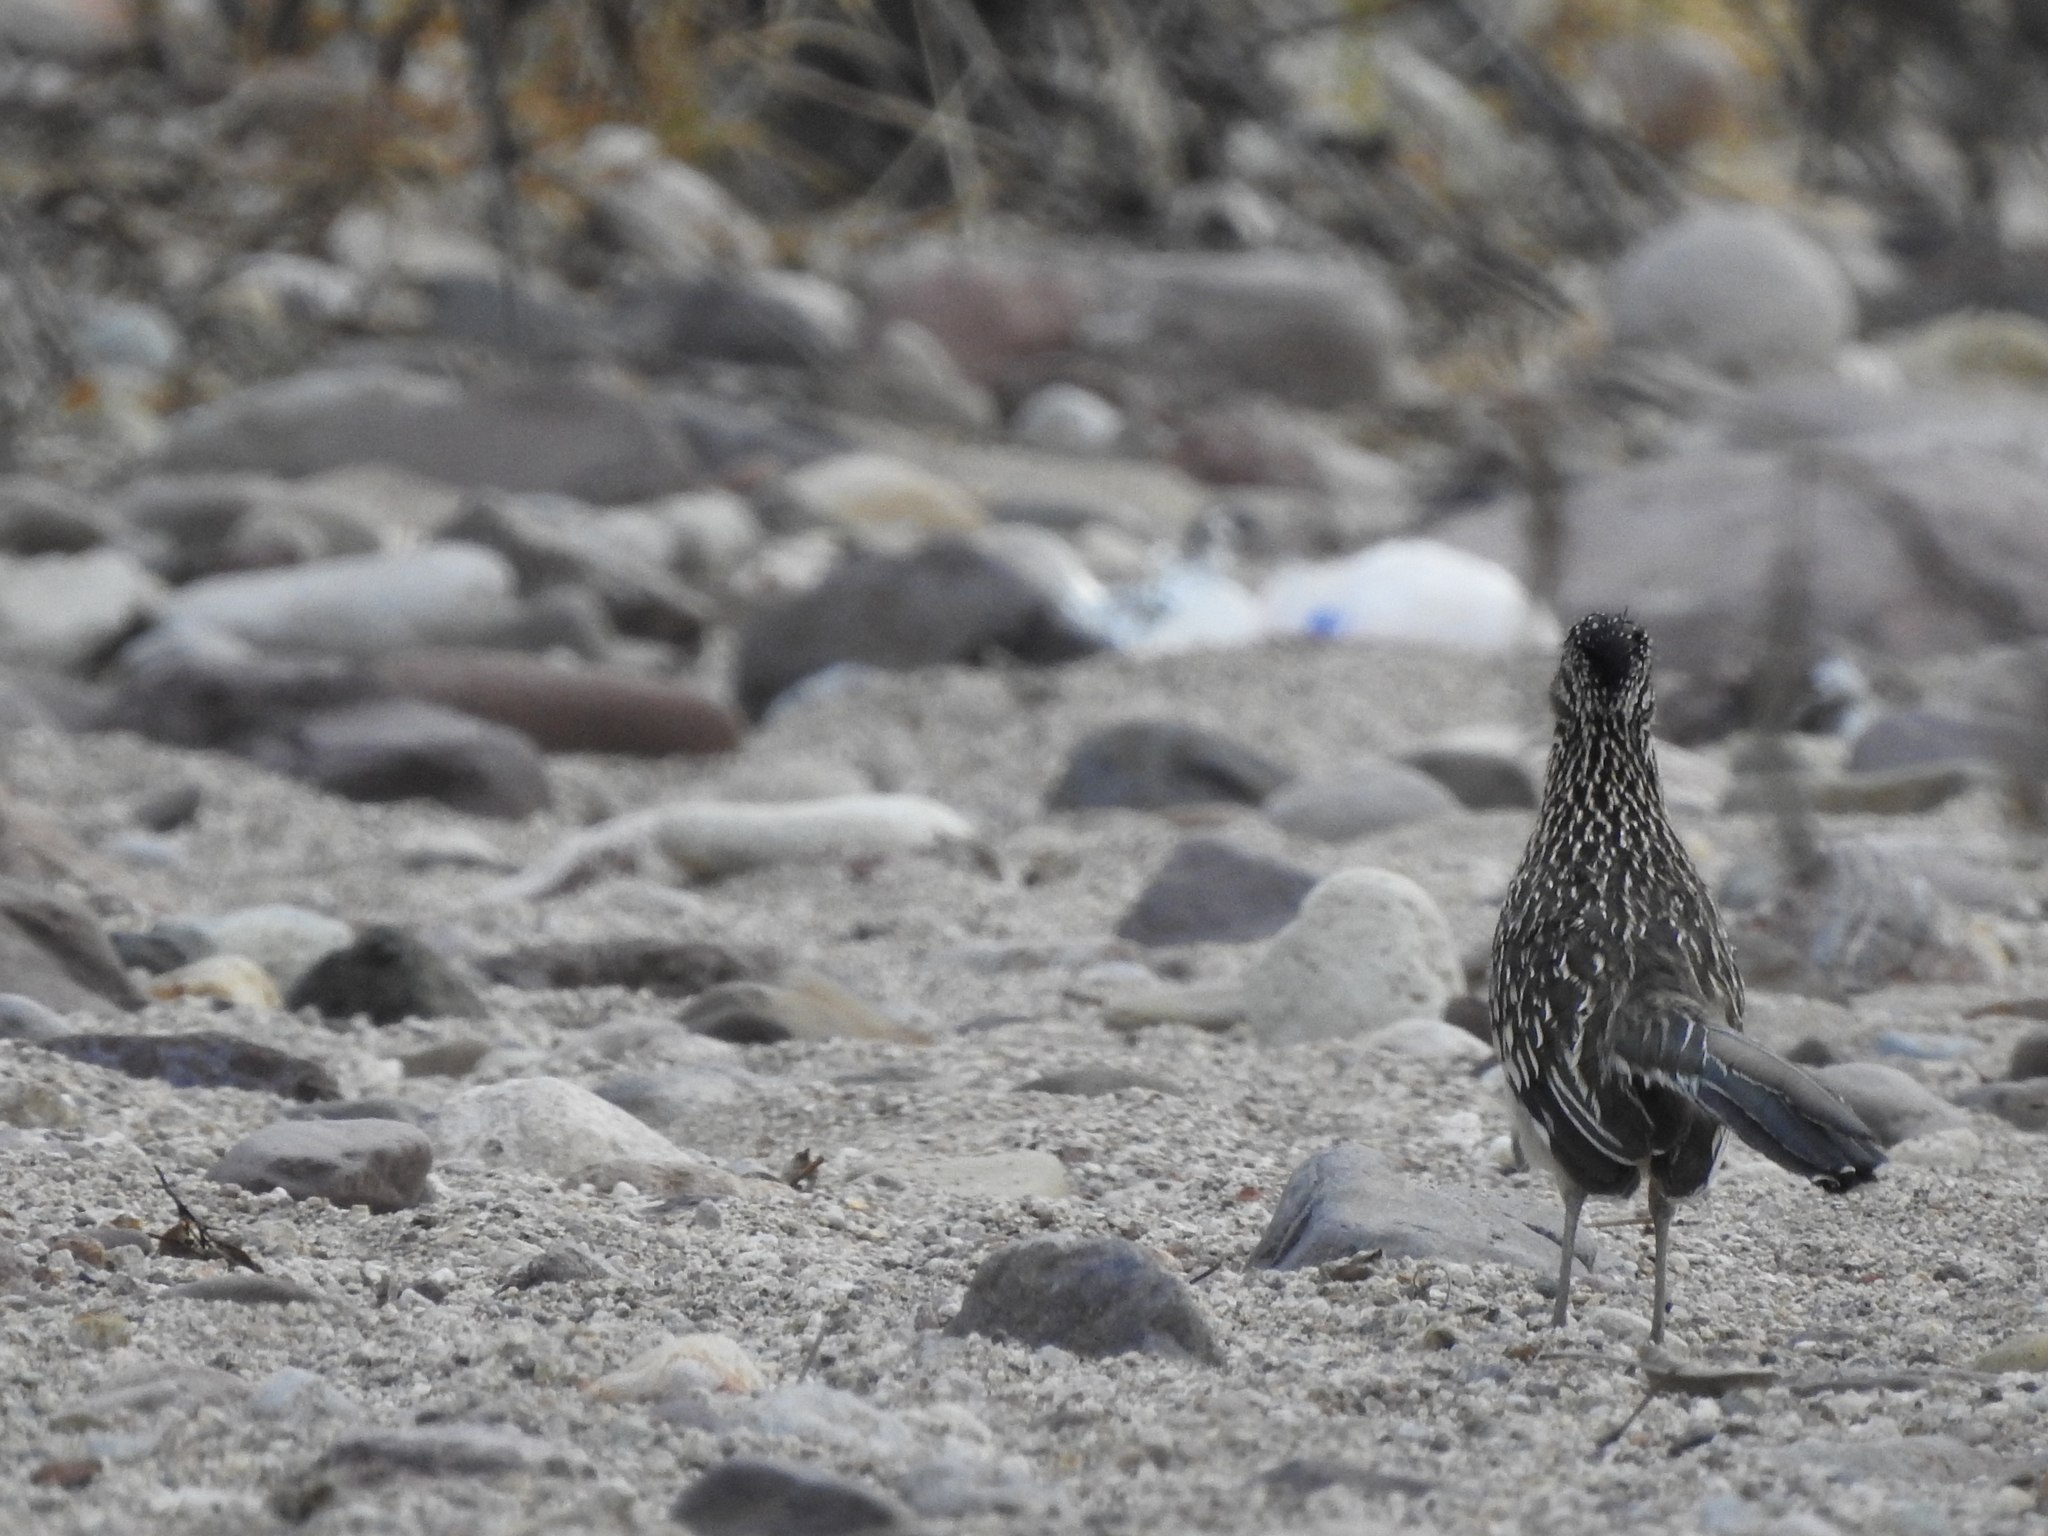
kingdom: Animalia
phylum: Chordata
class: Aves
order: Cuculiformes
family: Cuculidae
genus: Geococcyx
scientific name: Geococcyx californianus
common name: Greater roadrunner
